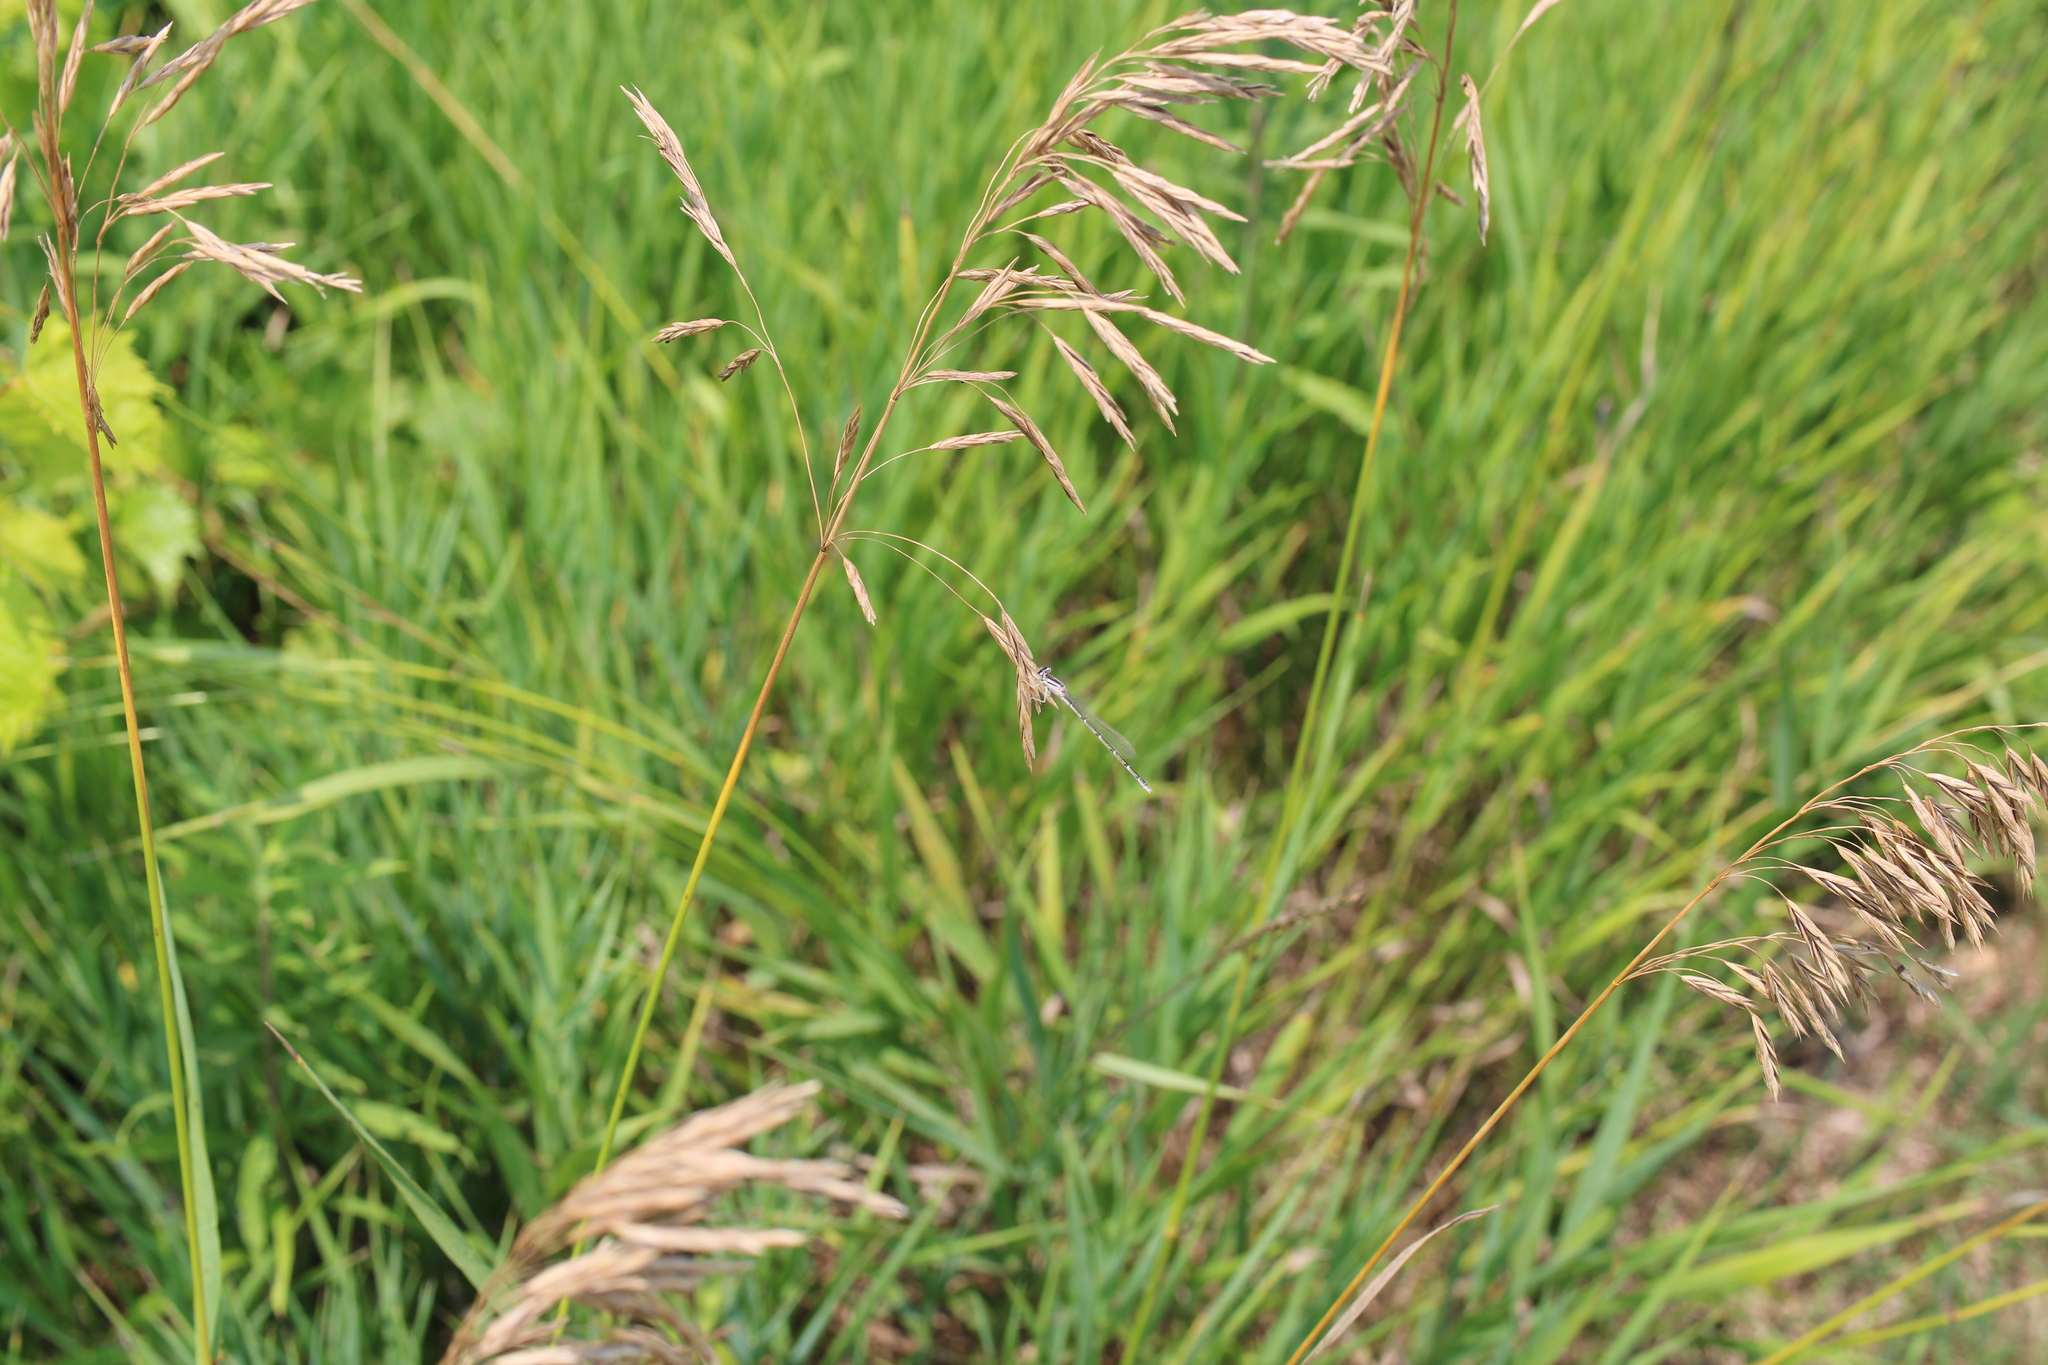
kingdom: Plantae
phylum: Tracheophyta
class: Liliopsida
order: Poales
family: Poaceae
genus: Bromus
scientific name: Bromus inermis
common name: Smooth brome
